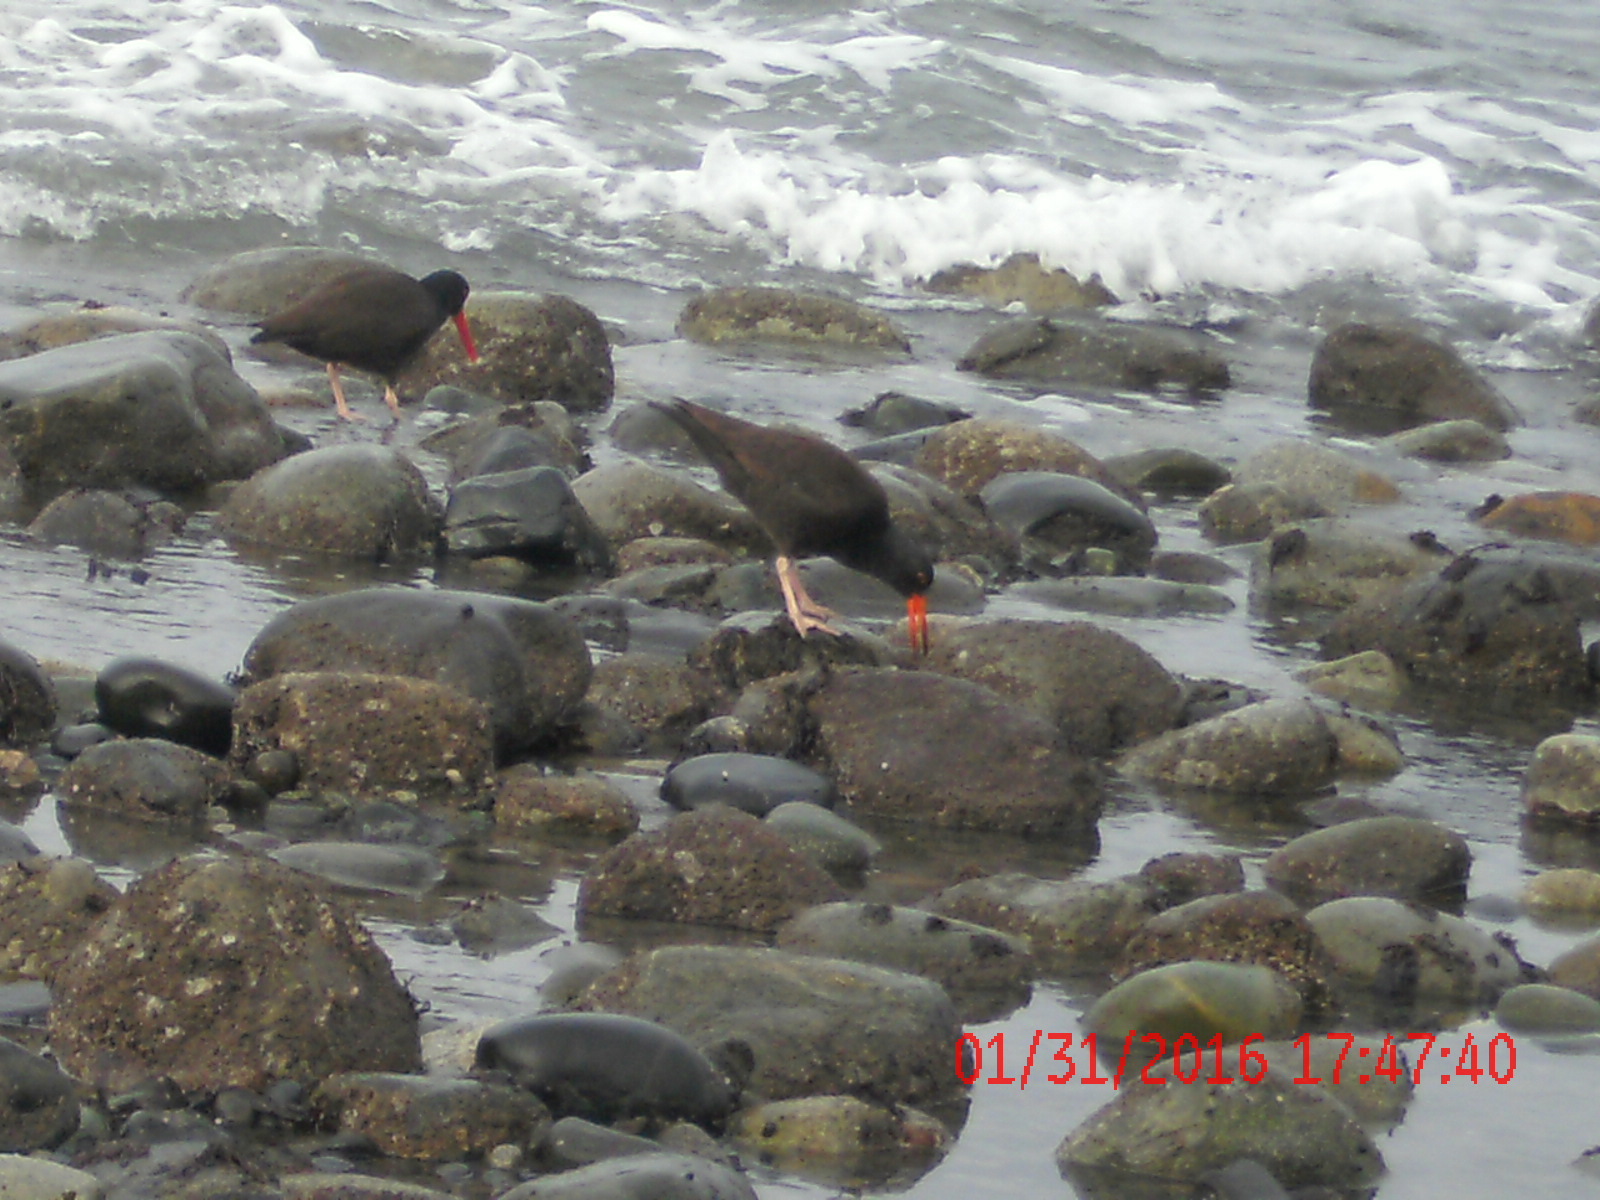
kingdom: Animalia
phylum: Chordata
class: Aves
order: Charadriiformes
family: Haematopodidae
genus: Haematopus
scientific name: Haematopus bachmani
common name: Black oystercatcher
